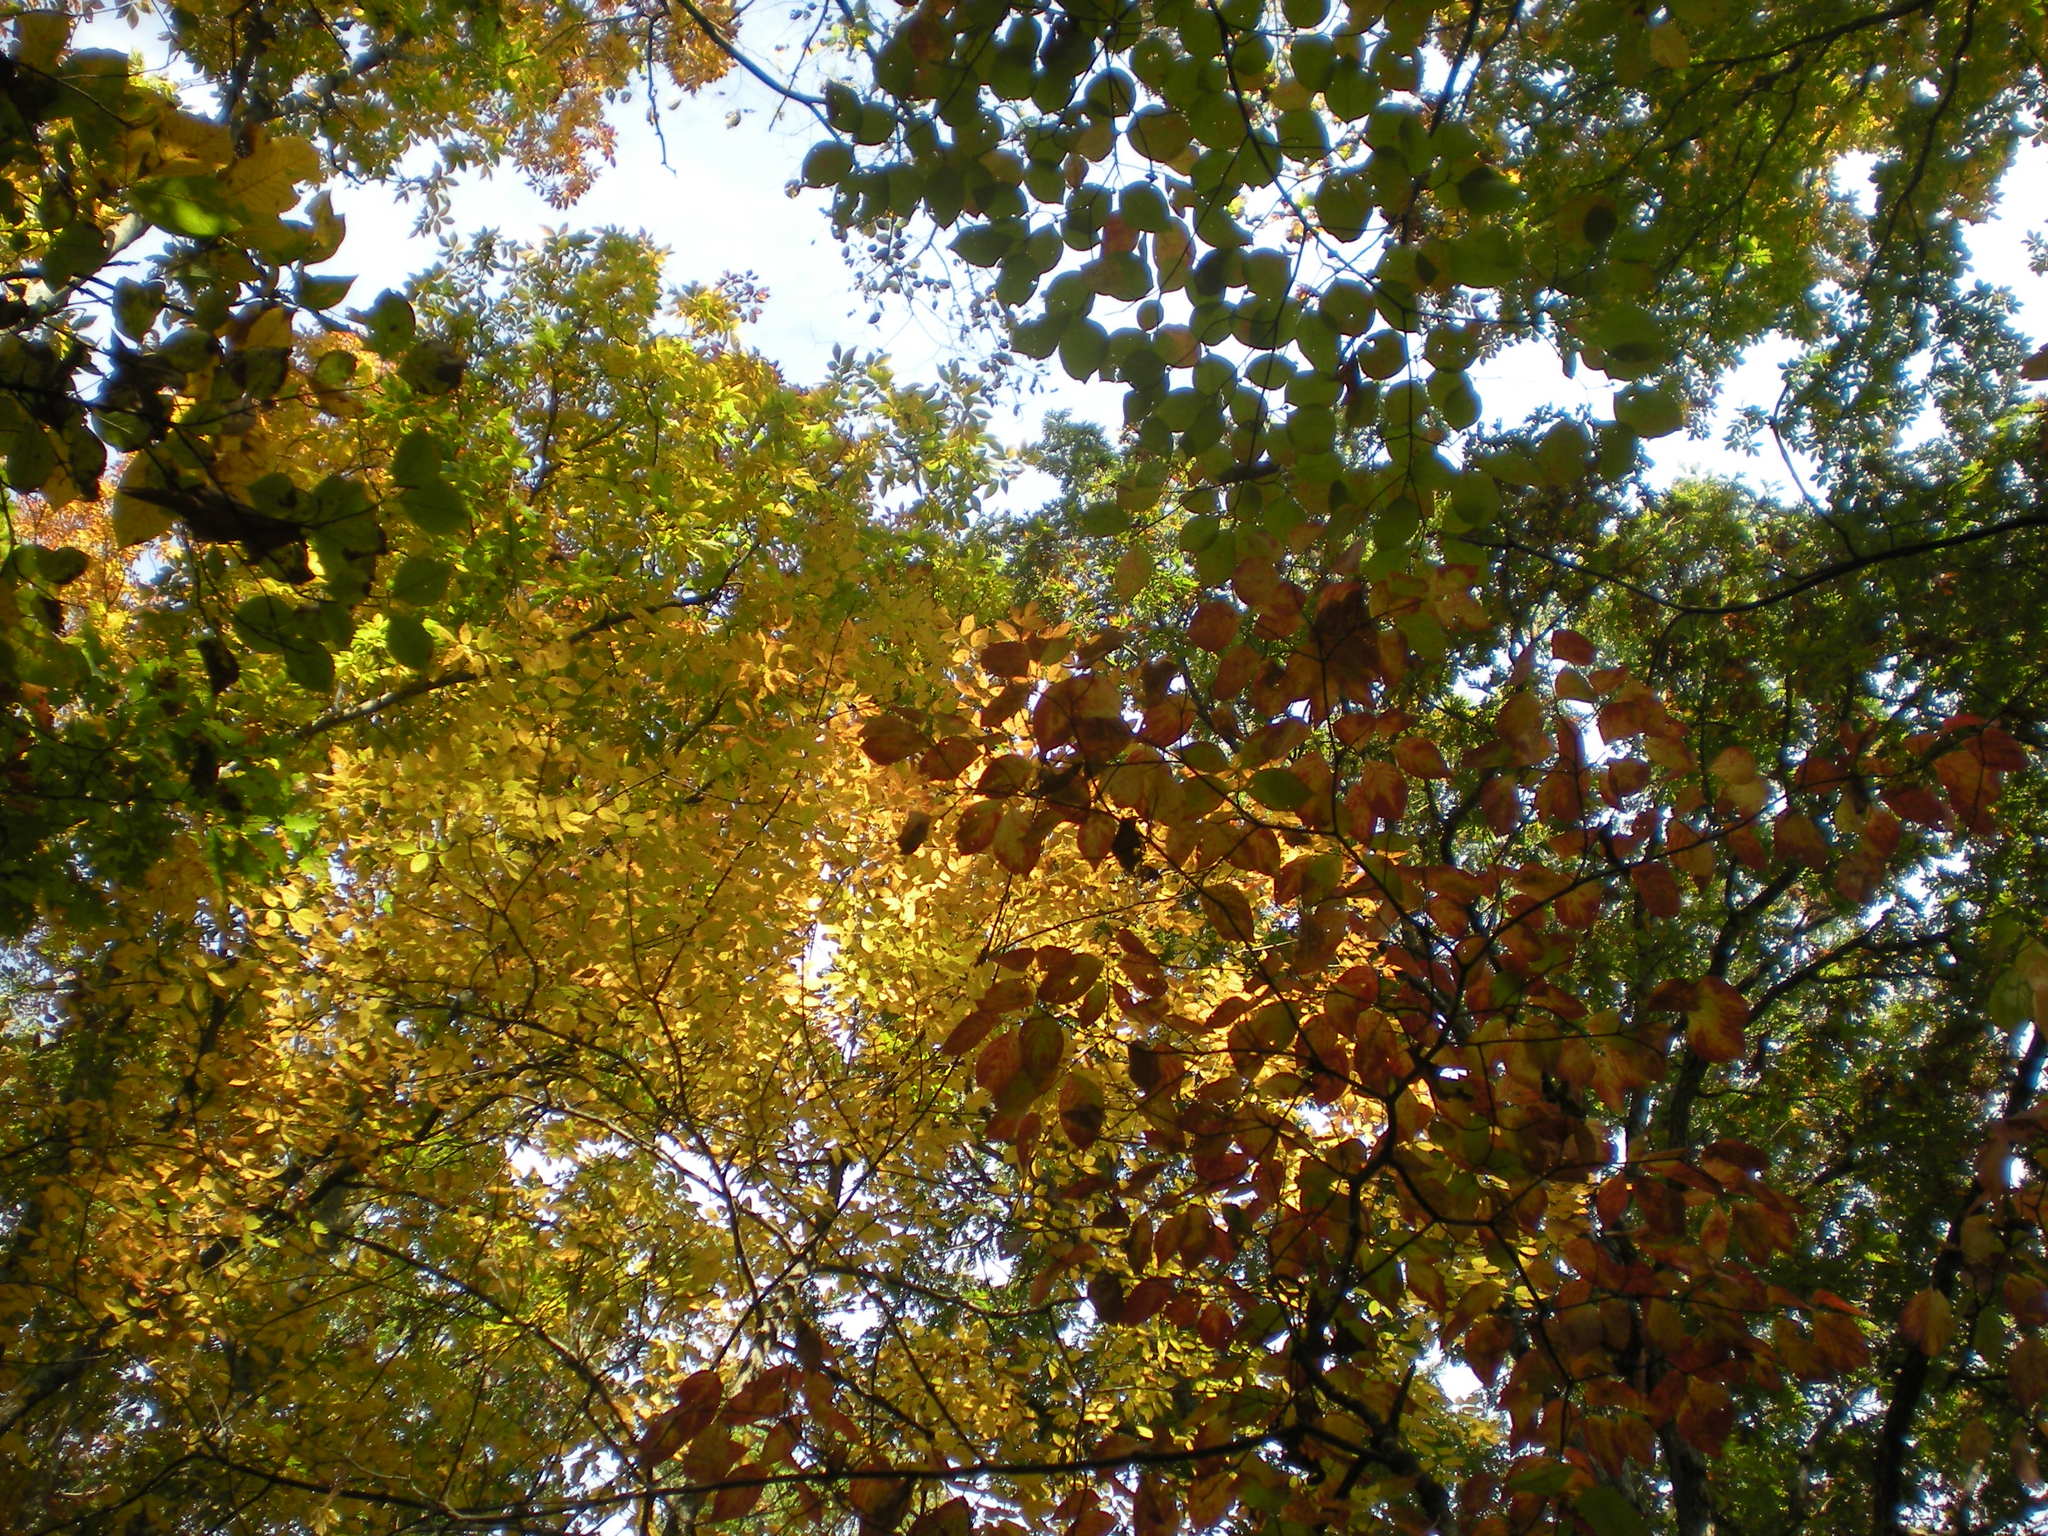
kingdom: Plantae
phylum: Tracheophyta
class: Magnoliopsida
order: Cornales
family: Cornaceae
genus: Cornus
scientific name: Cornus florida
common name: Flowering dogwood
